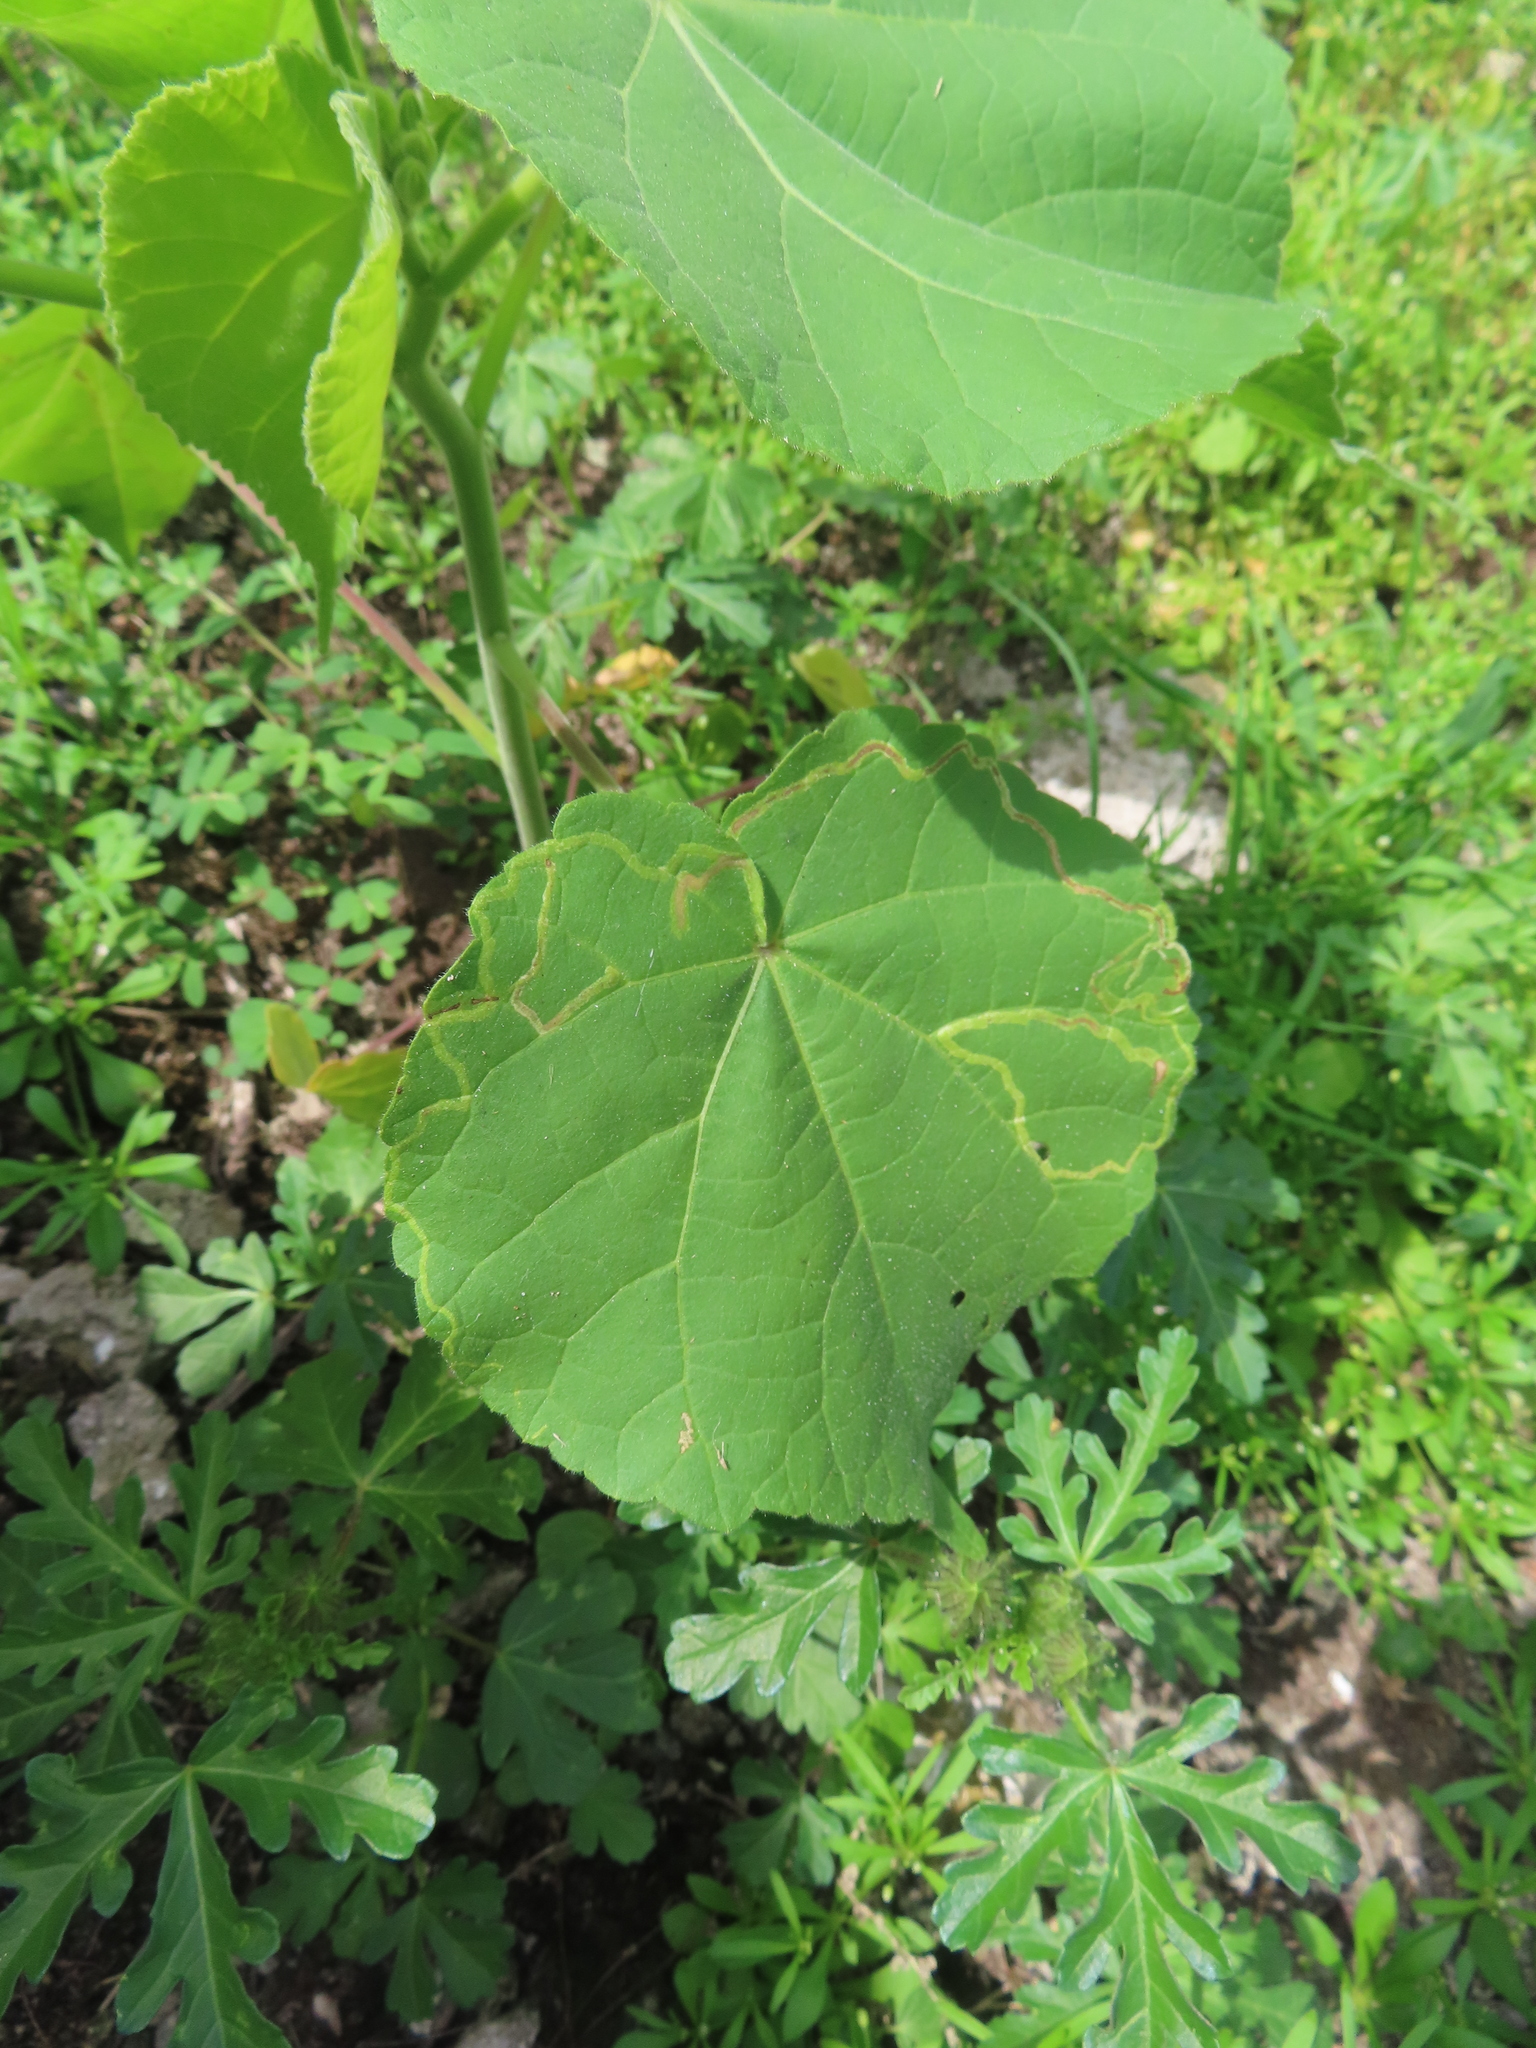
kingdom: Animalia
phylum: Arthropoda
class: Insecta
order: Diptera
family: Agromyzidae
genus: Calycomyza
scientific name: Calycomyza malvae
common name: Mallow leaf miner
